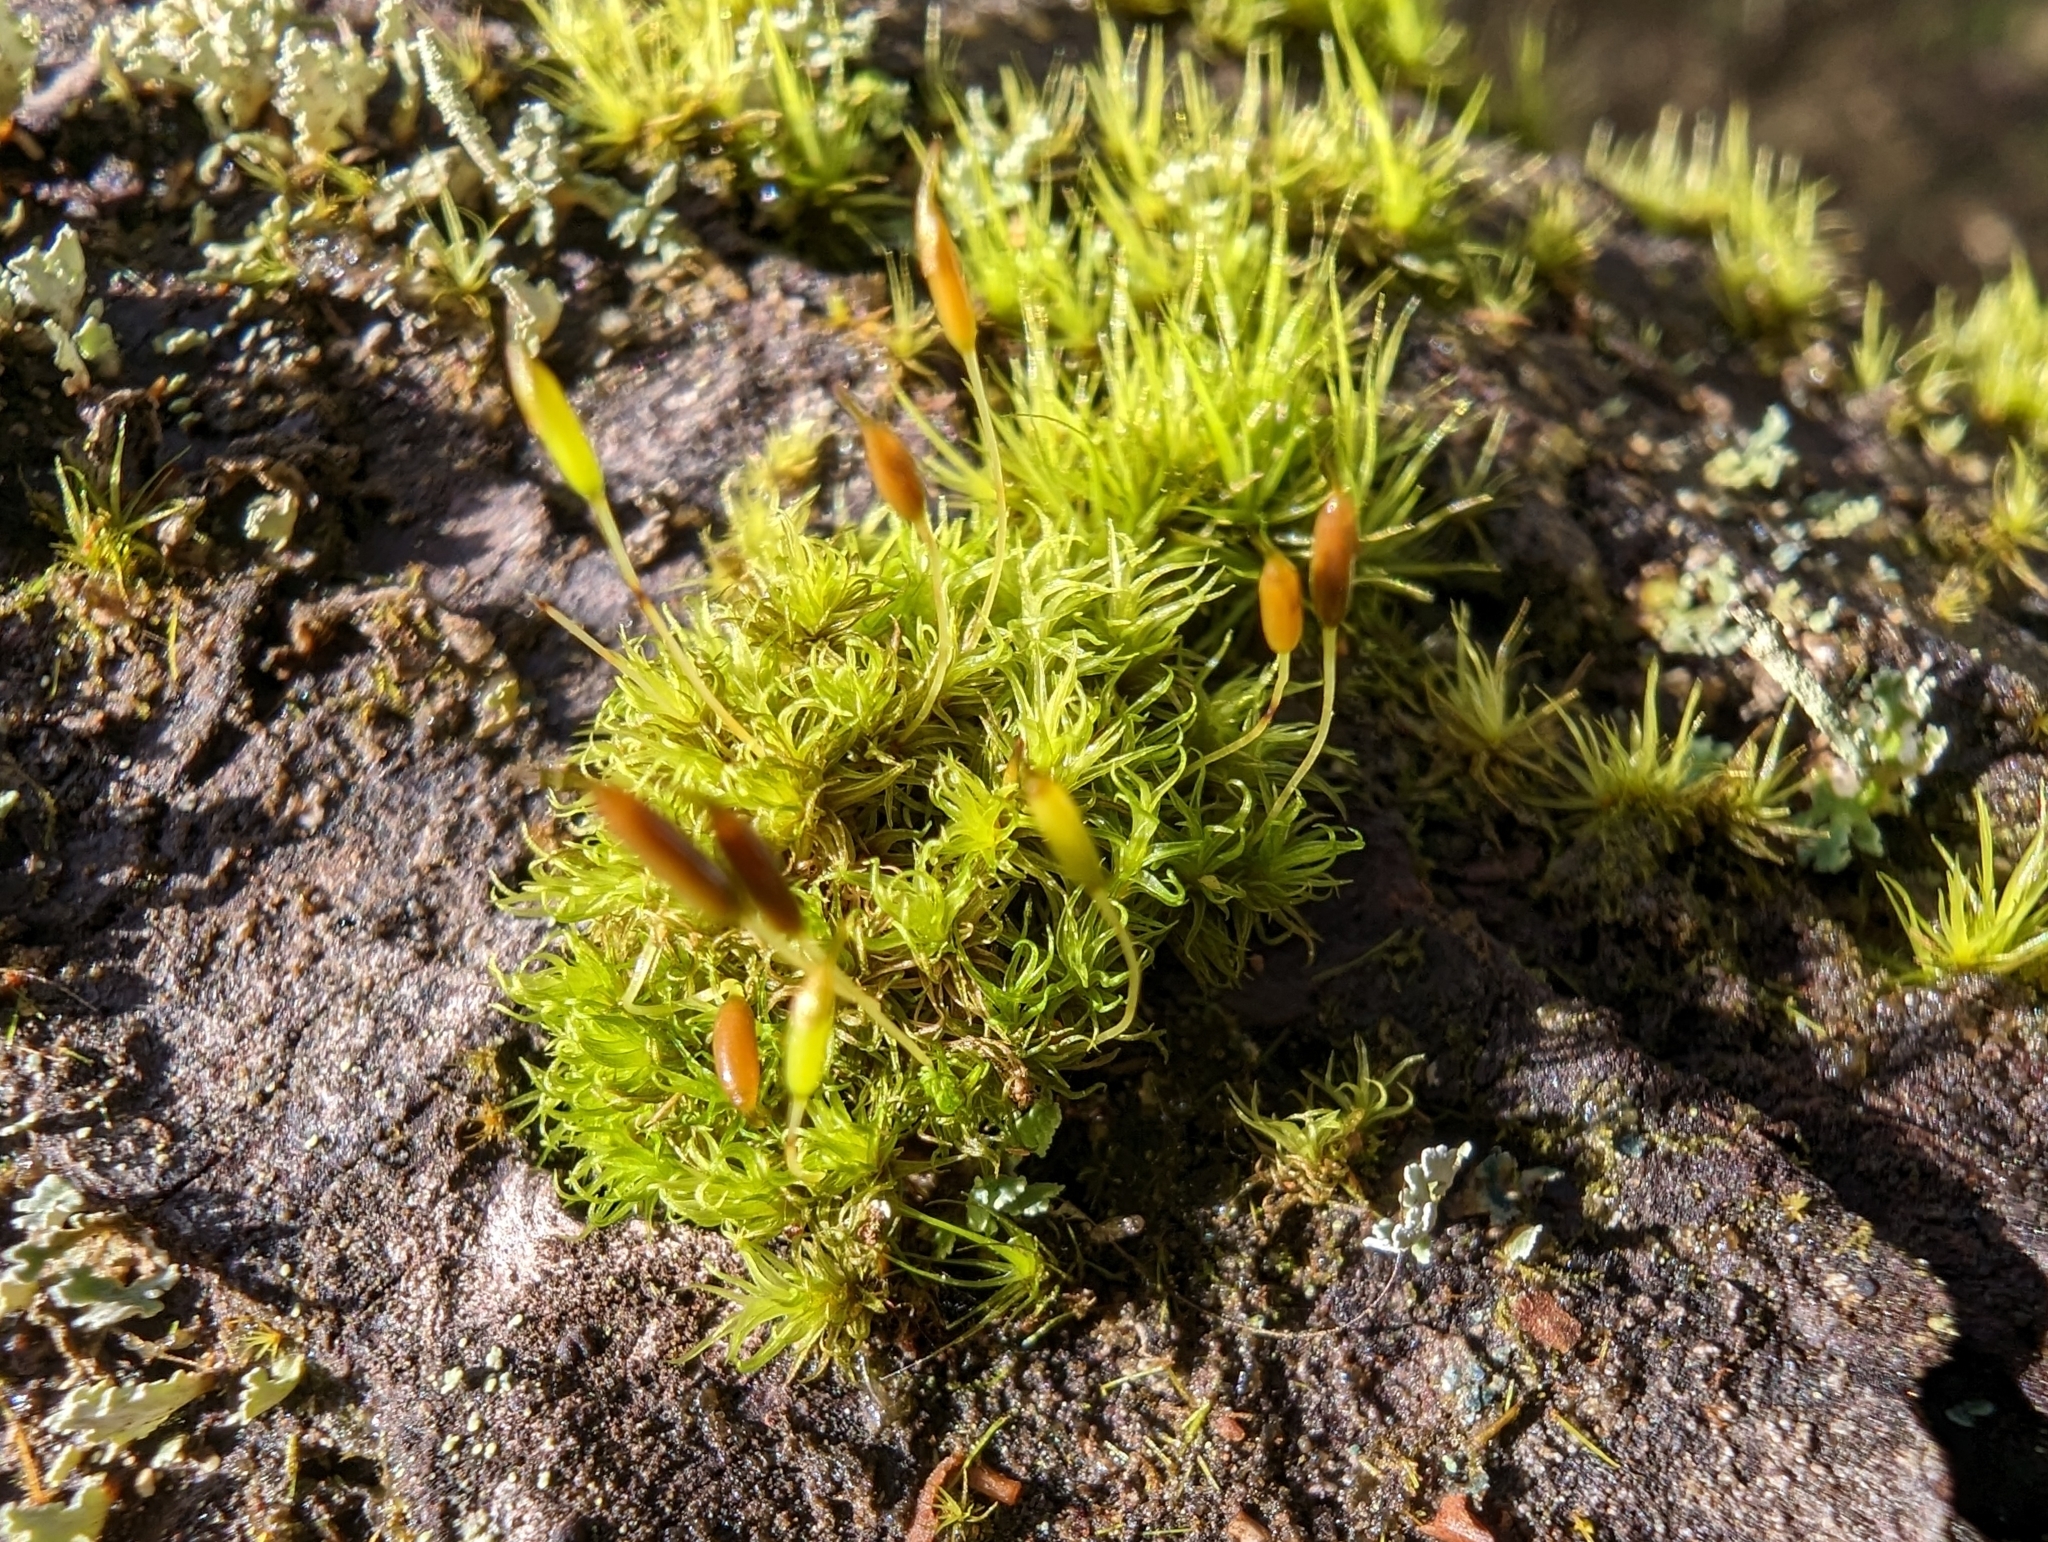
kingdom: Plantae
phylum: Bryophyta
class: Bryopsida
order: Dicranales
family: Rhabdoweisiaceae
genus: Dicranoweisia
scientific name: Dicranoweisia cirrata
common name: Common pincushion
